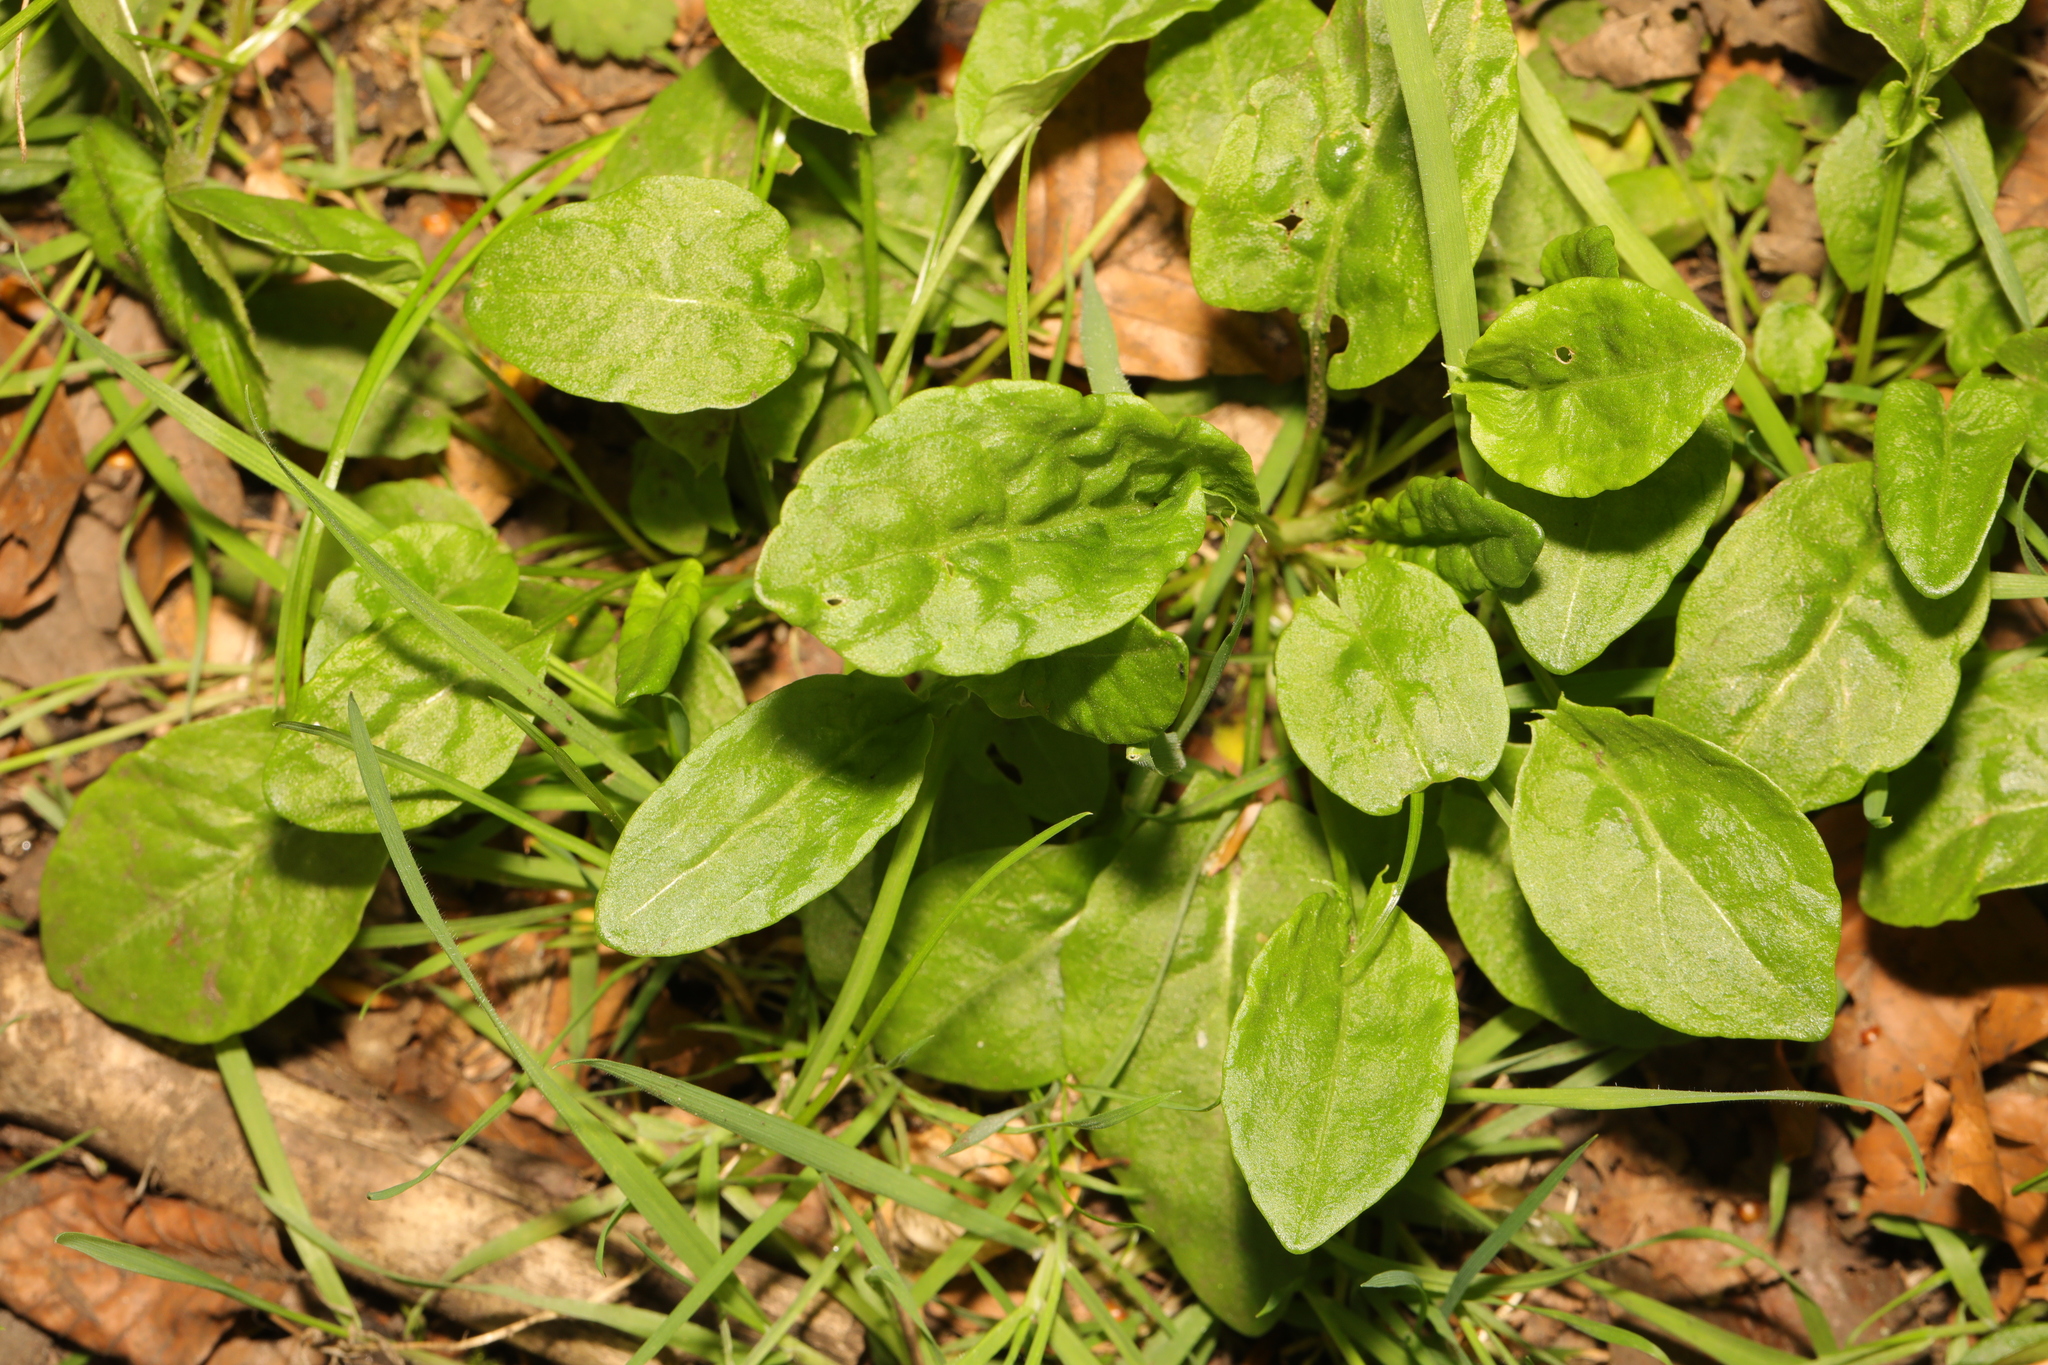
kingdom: Plantae
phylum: Tracheophyta
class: Magnoliopsida
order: Caryophyllales
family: Polygonaceae
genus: Rumex
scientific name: Rumex acetosa
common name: Garden sorrel
